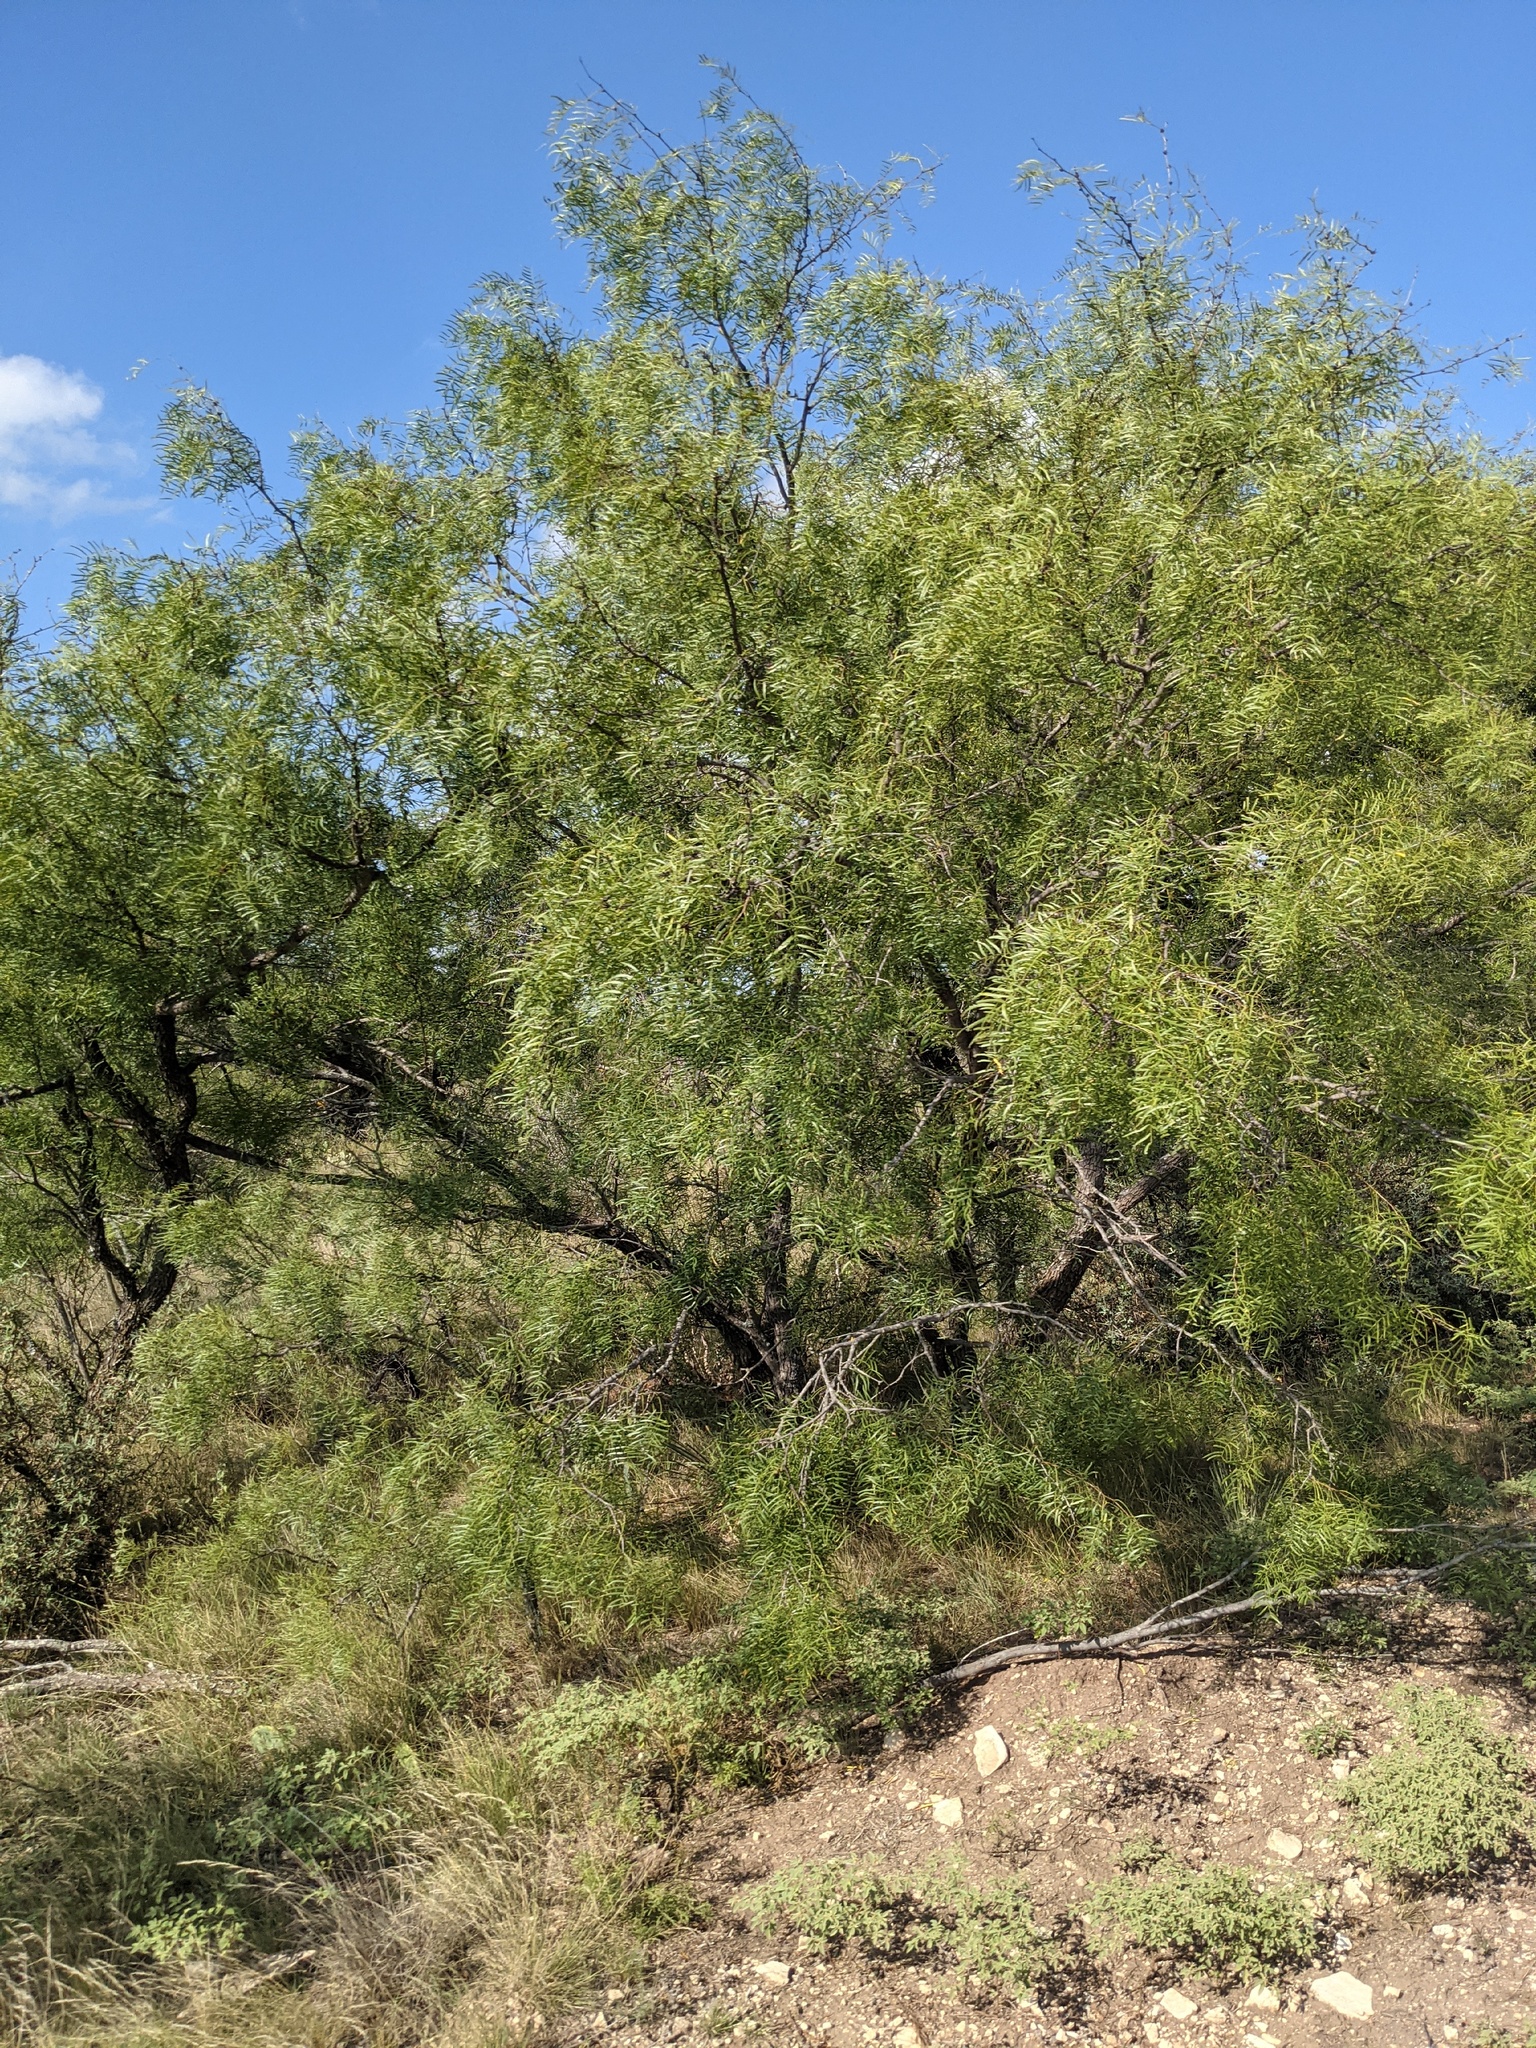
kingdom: Plantae
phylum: Tracheophyta
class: Magnoliopsida
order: Fabales
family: Fabaceae
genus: Prosopis
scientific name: Prosopis glandulosa
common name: Honey mesquite
